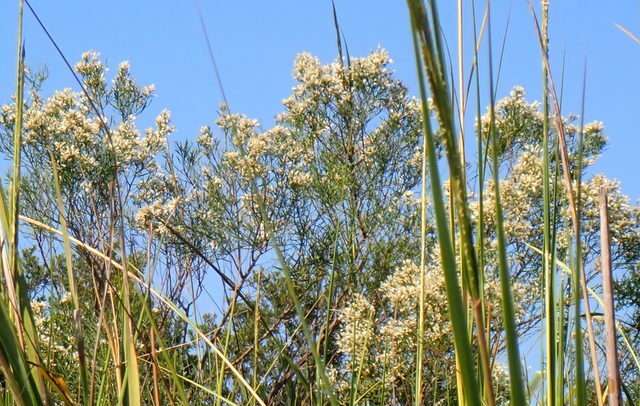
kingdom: Plantae
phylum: Tracheophyta
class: Magnoliopsida
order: Asterales
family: Asteraceae
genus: Baccharis
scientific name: Baccharis halimifolia
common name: Eastern baccharis
